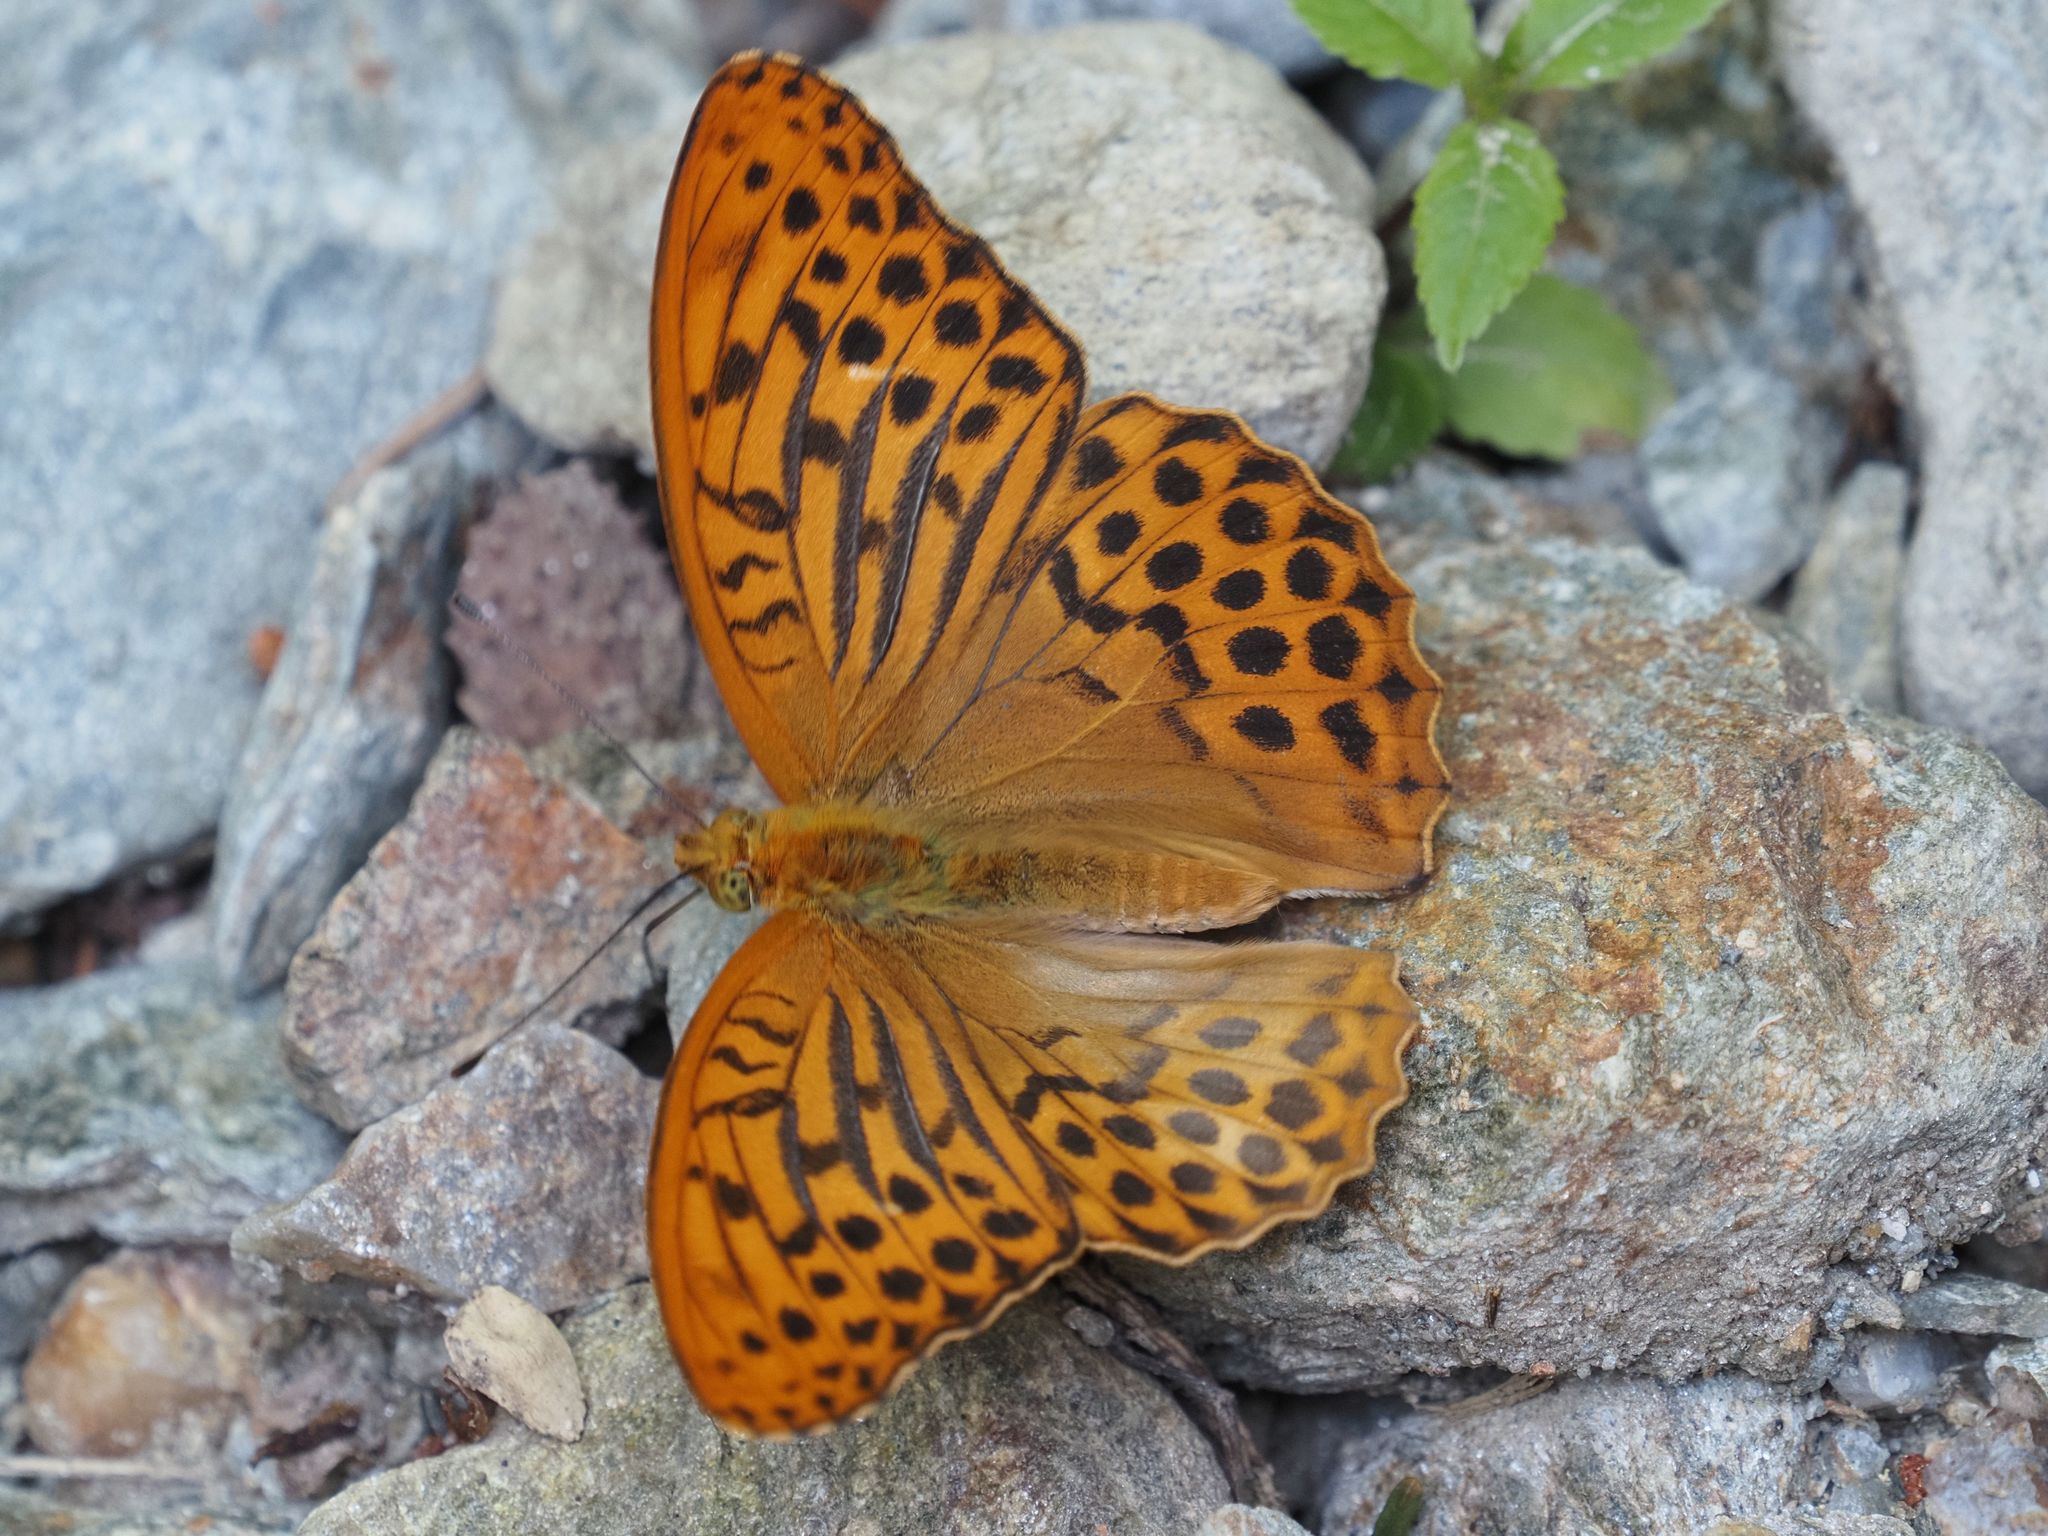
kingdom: Animalia
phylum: Arthropoda
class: Insecta
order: Lepidoptera
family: Nymphalidae
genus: Argynnis
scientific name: Argynnis paphia
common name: Silver-washed fritillary
